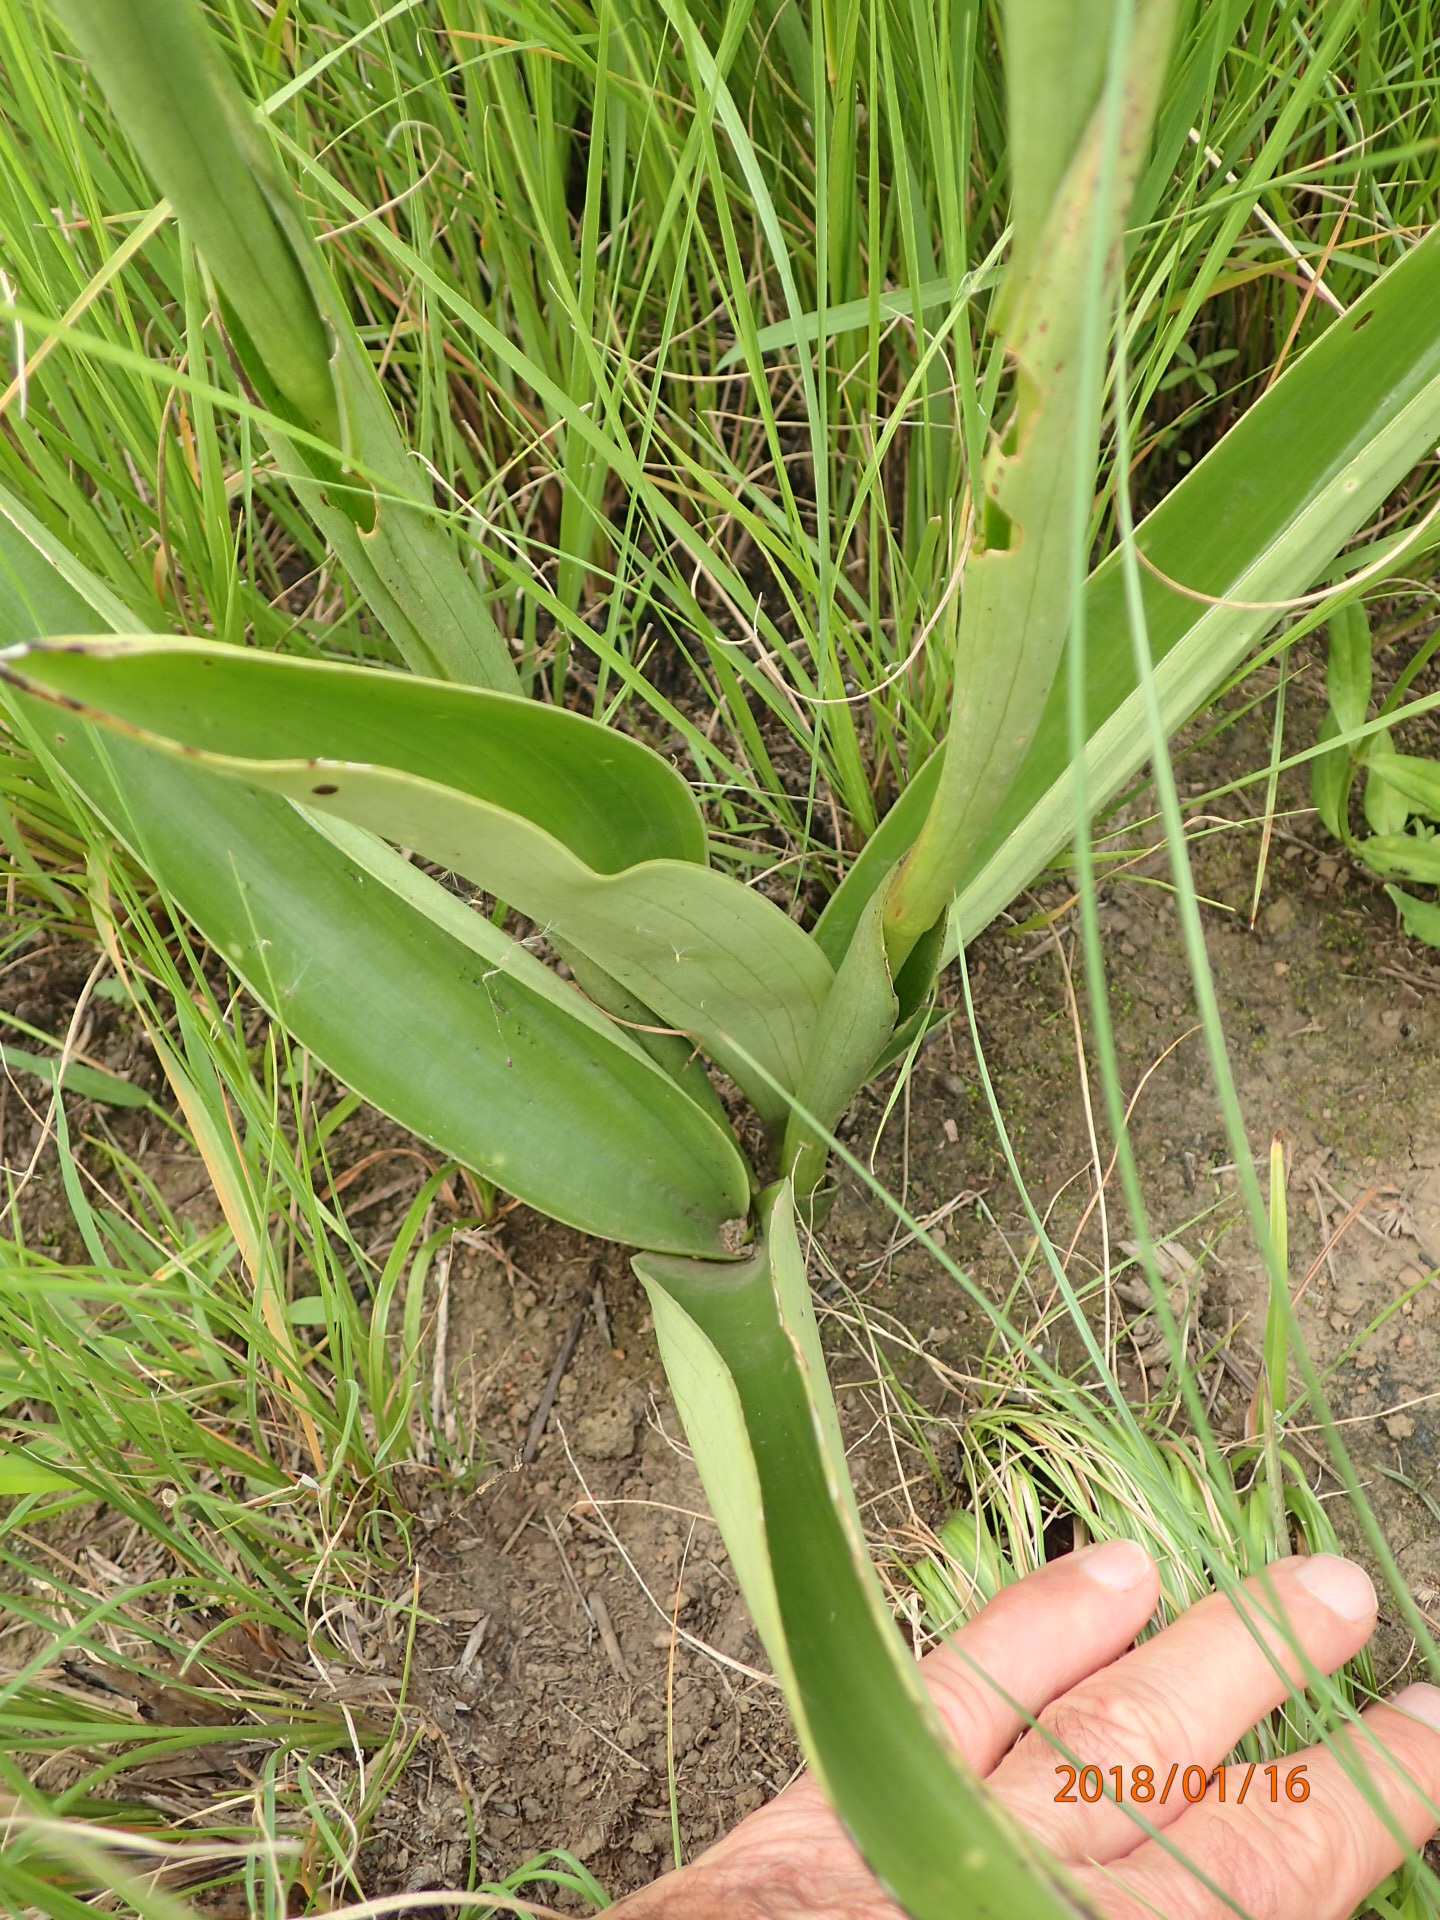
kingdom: Plantae
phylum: Tracheophyta
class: Liliopsida
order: Asparagales
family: Orchidaceae
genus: Satyrium
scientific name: Satyrium longicauda
